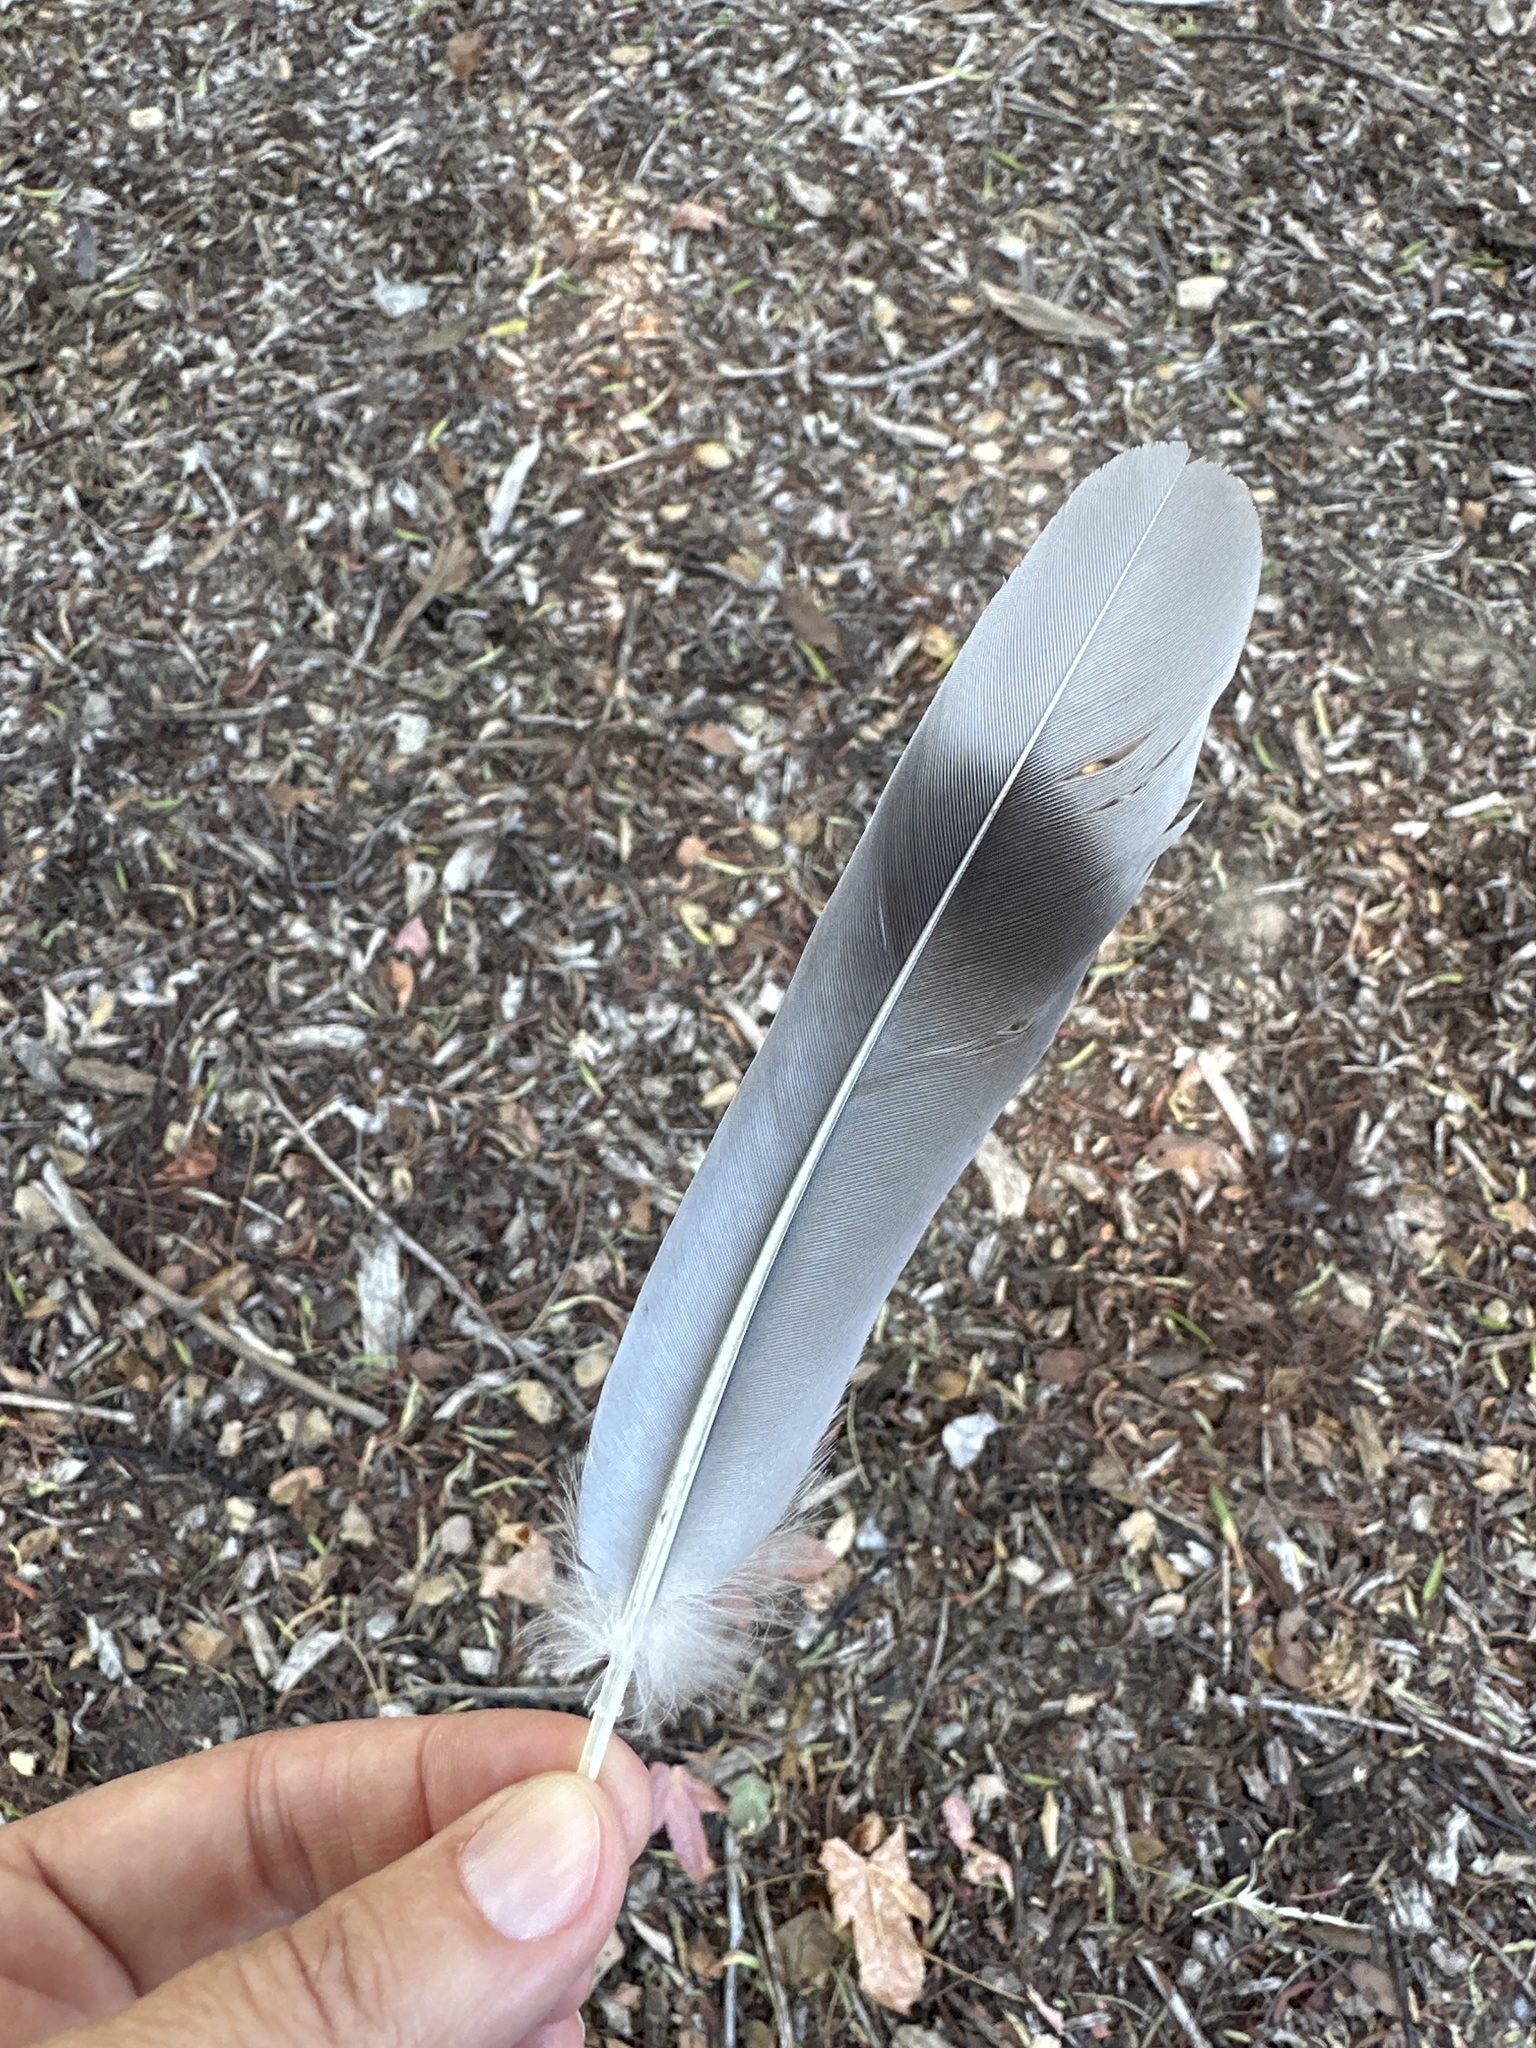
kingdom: Animalia
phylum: Chordata
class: Aves
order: Columbiformes
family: Columbidae
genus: Patagioenas
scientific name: Patagioenas fasciata
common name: Band-tailed pigeon
